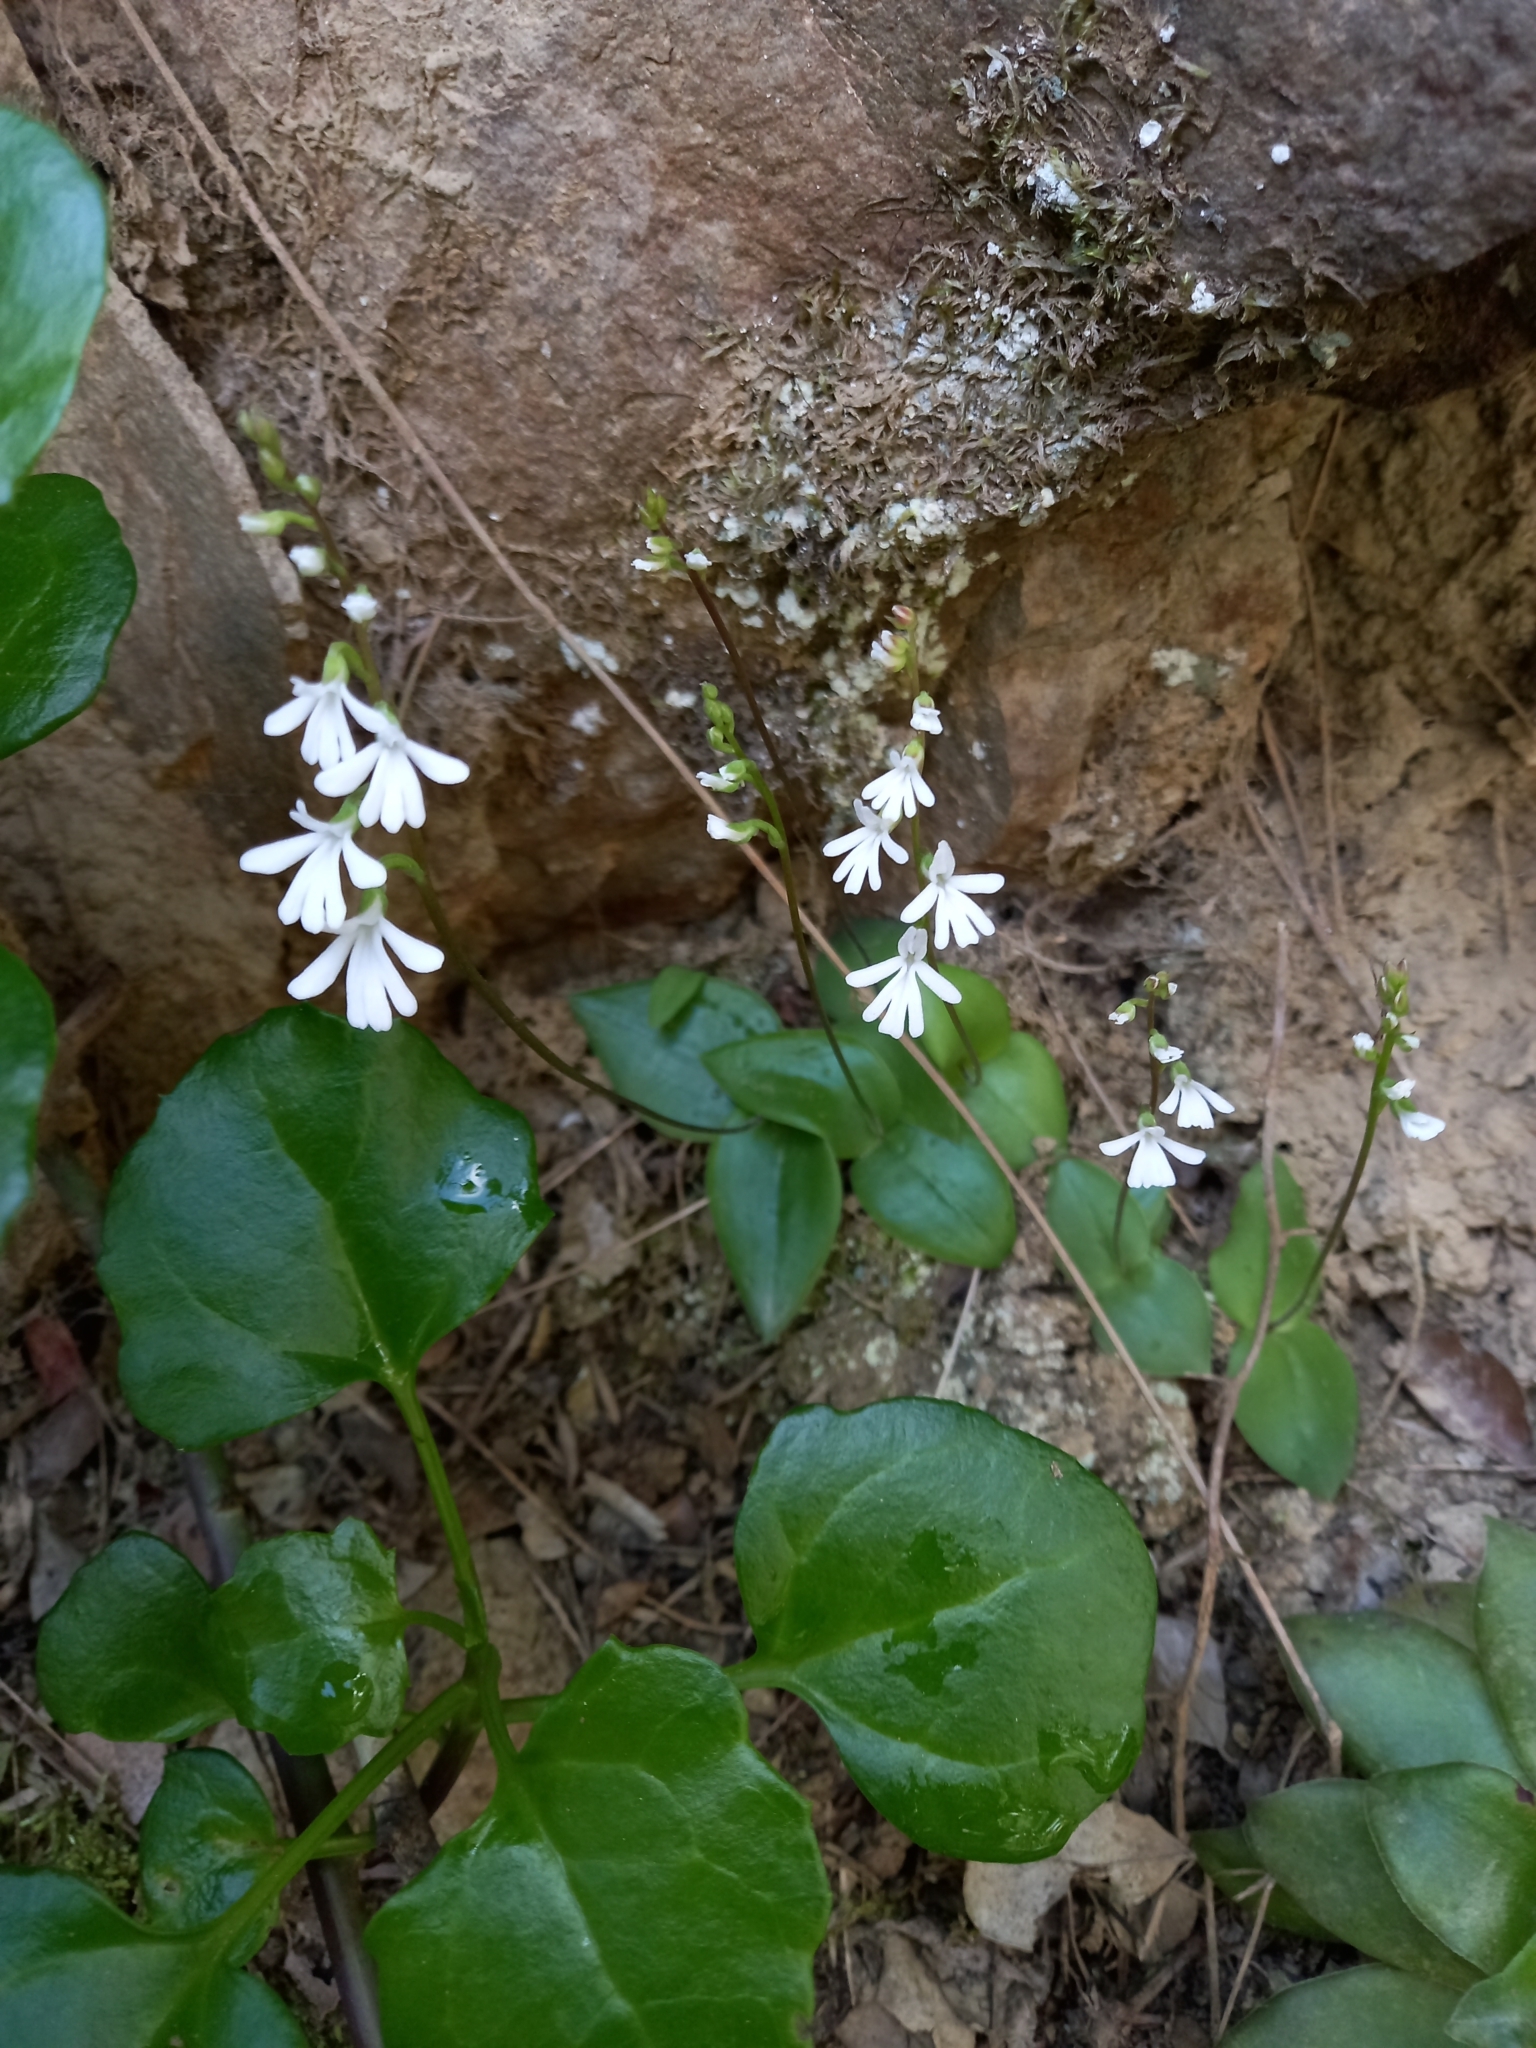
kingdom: Plantae
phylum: Tracheophyta
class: Liliopsida
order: Asparagales
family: Orchidaceae
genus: Holothrix
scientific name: Holothrix parviflora
